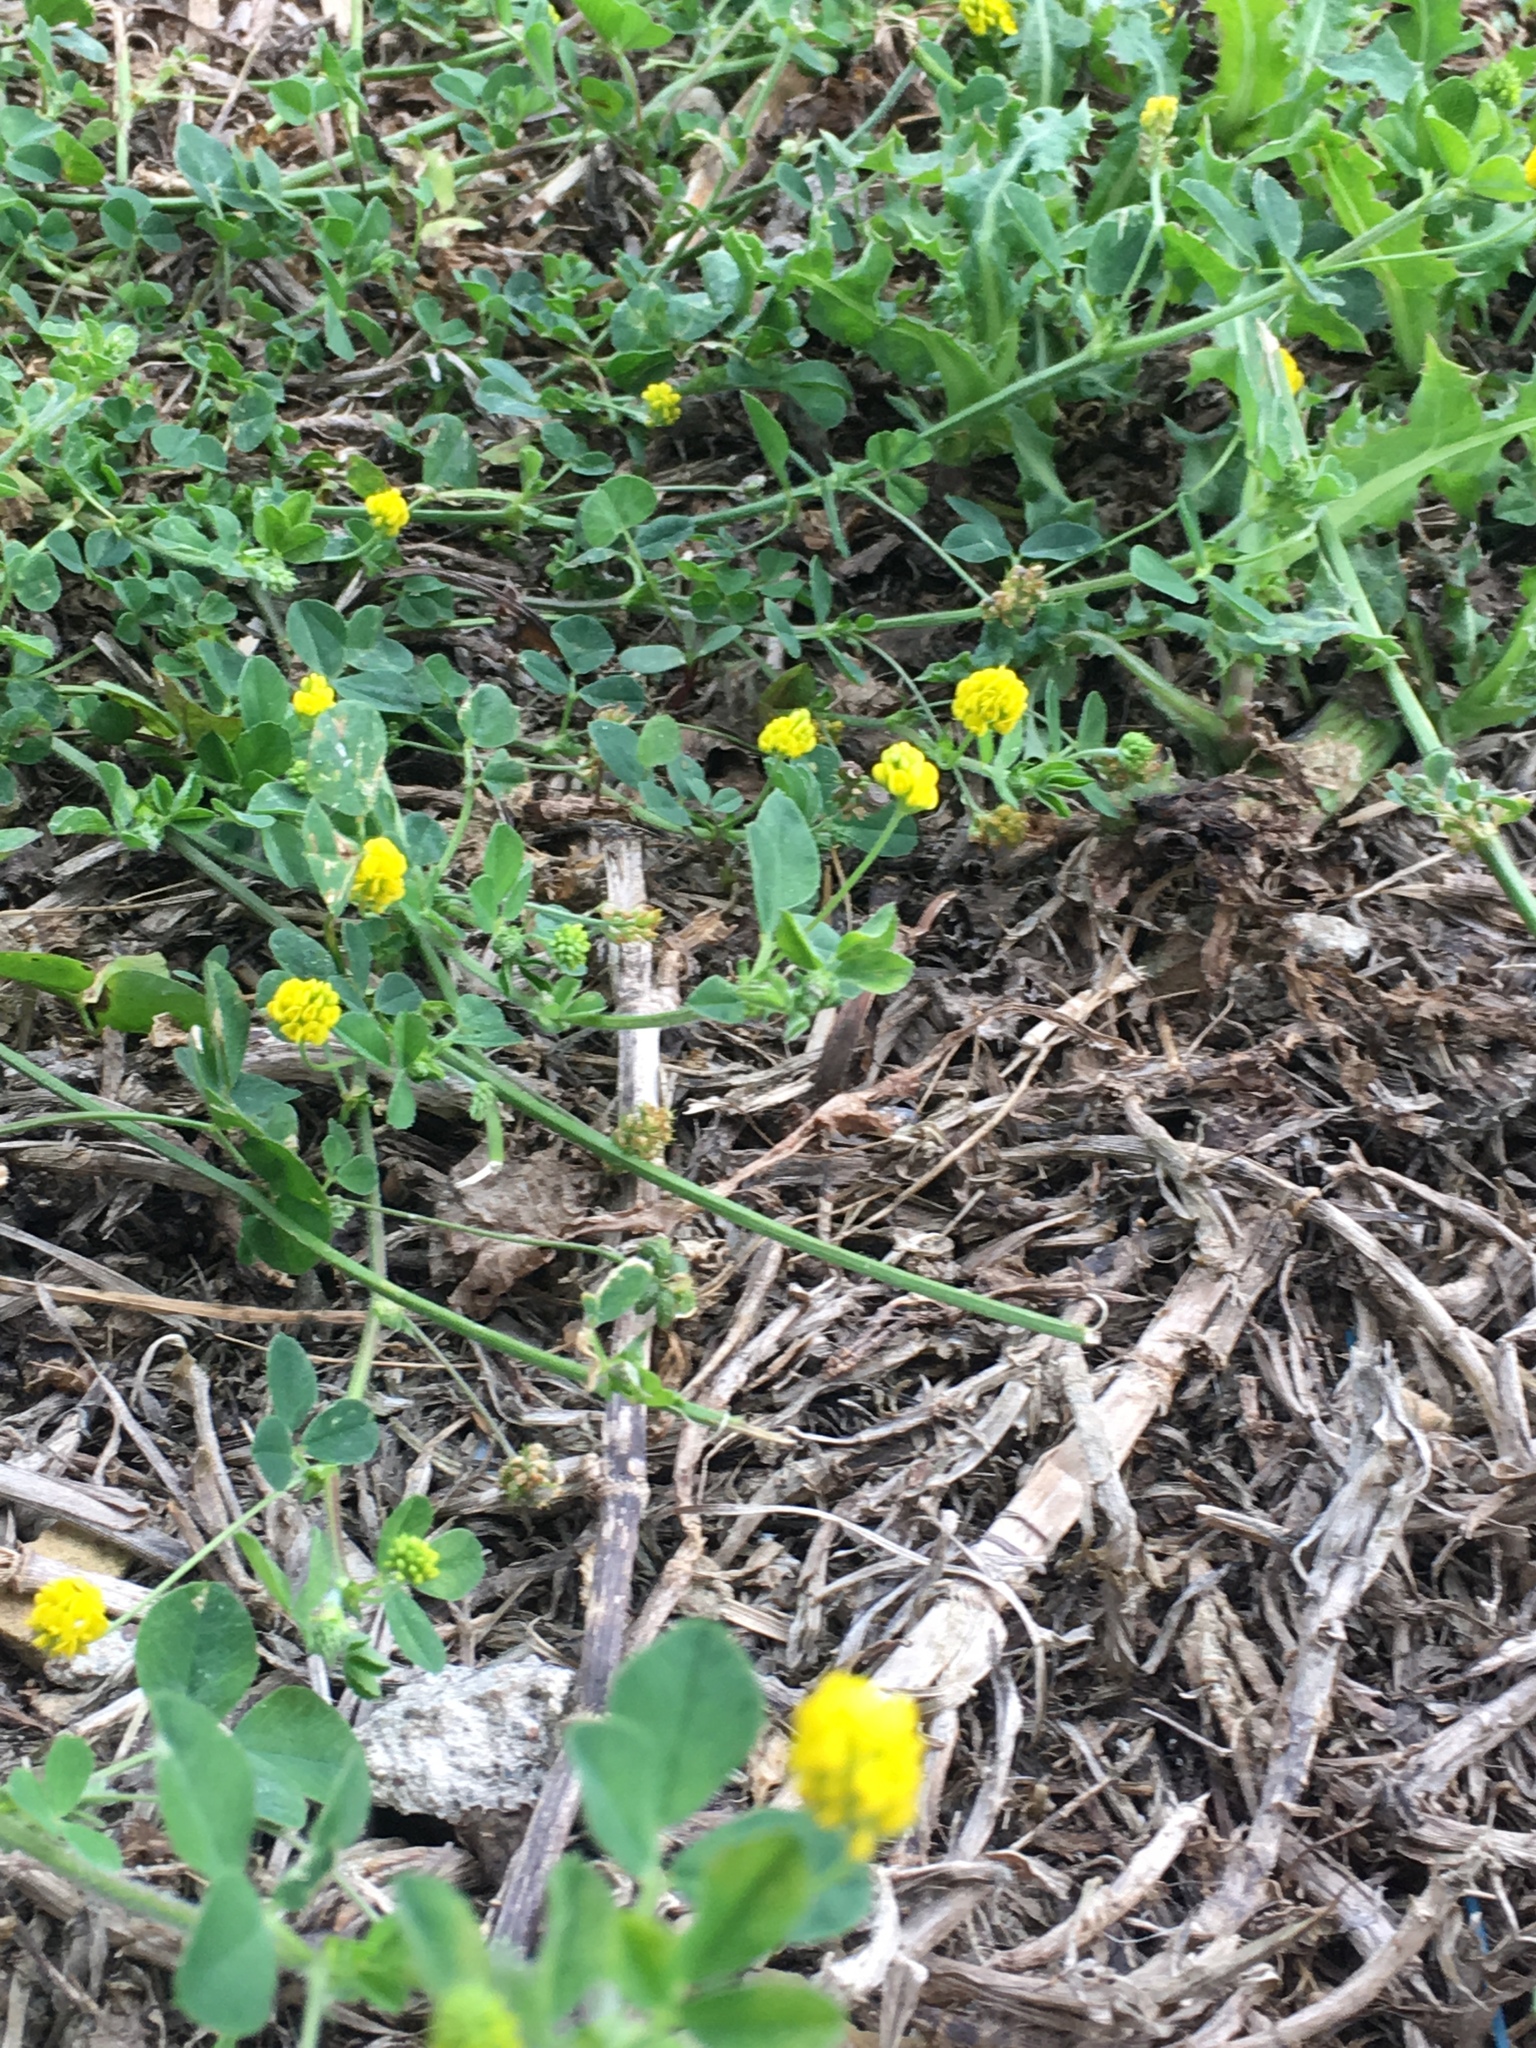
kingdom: Plantae
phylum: Tracheophyta
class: Magnoliopsida
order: Fabales
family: Fabaceae
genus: Medicago
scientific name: Medicago lupulina
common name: Black medick
